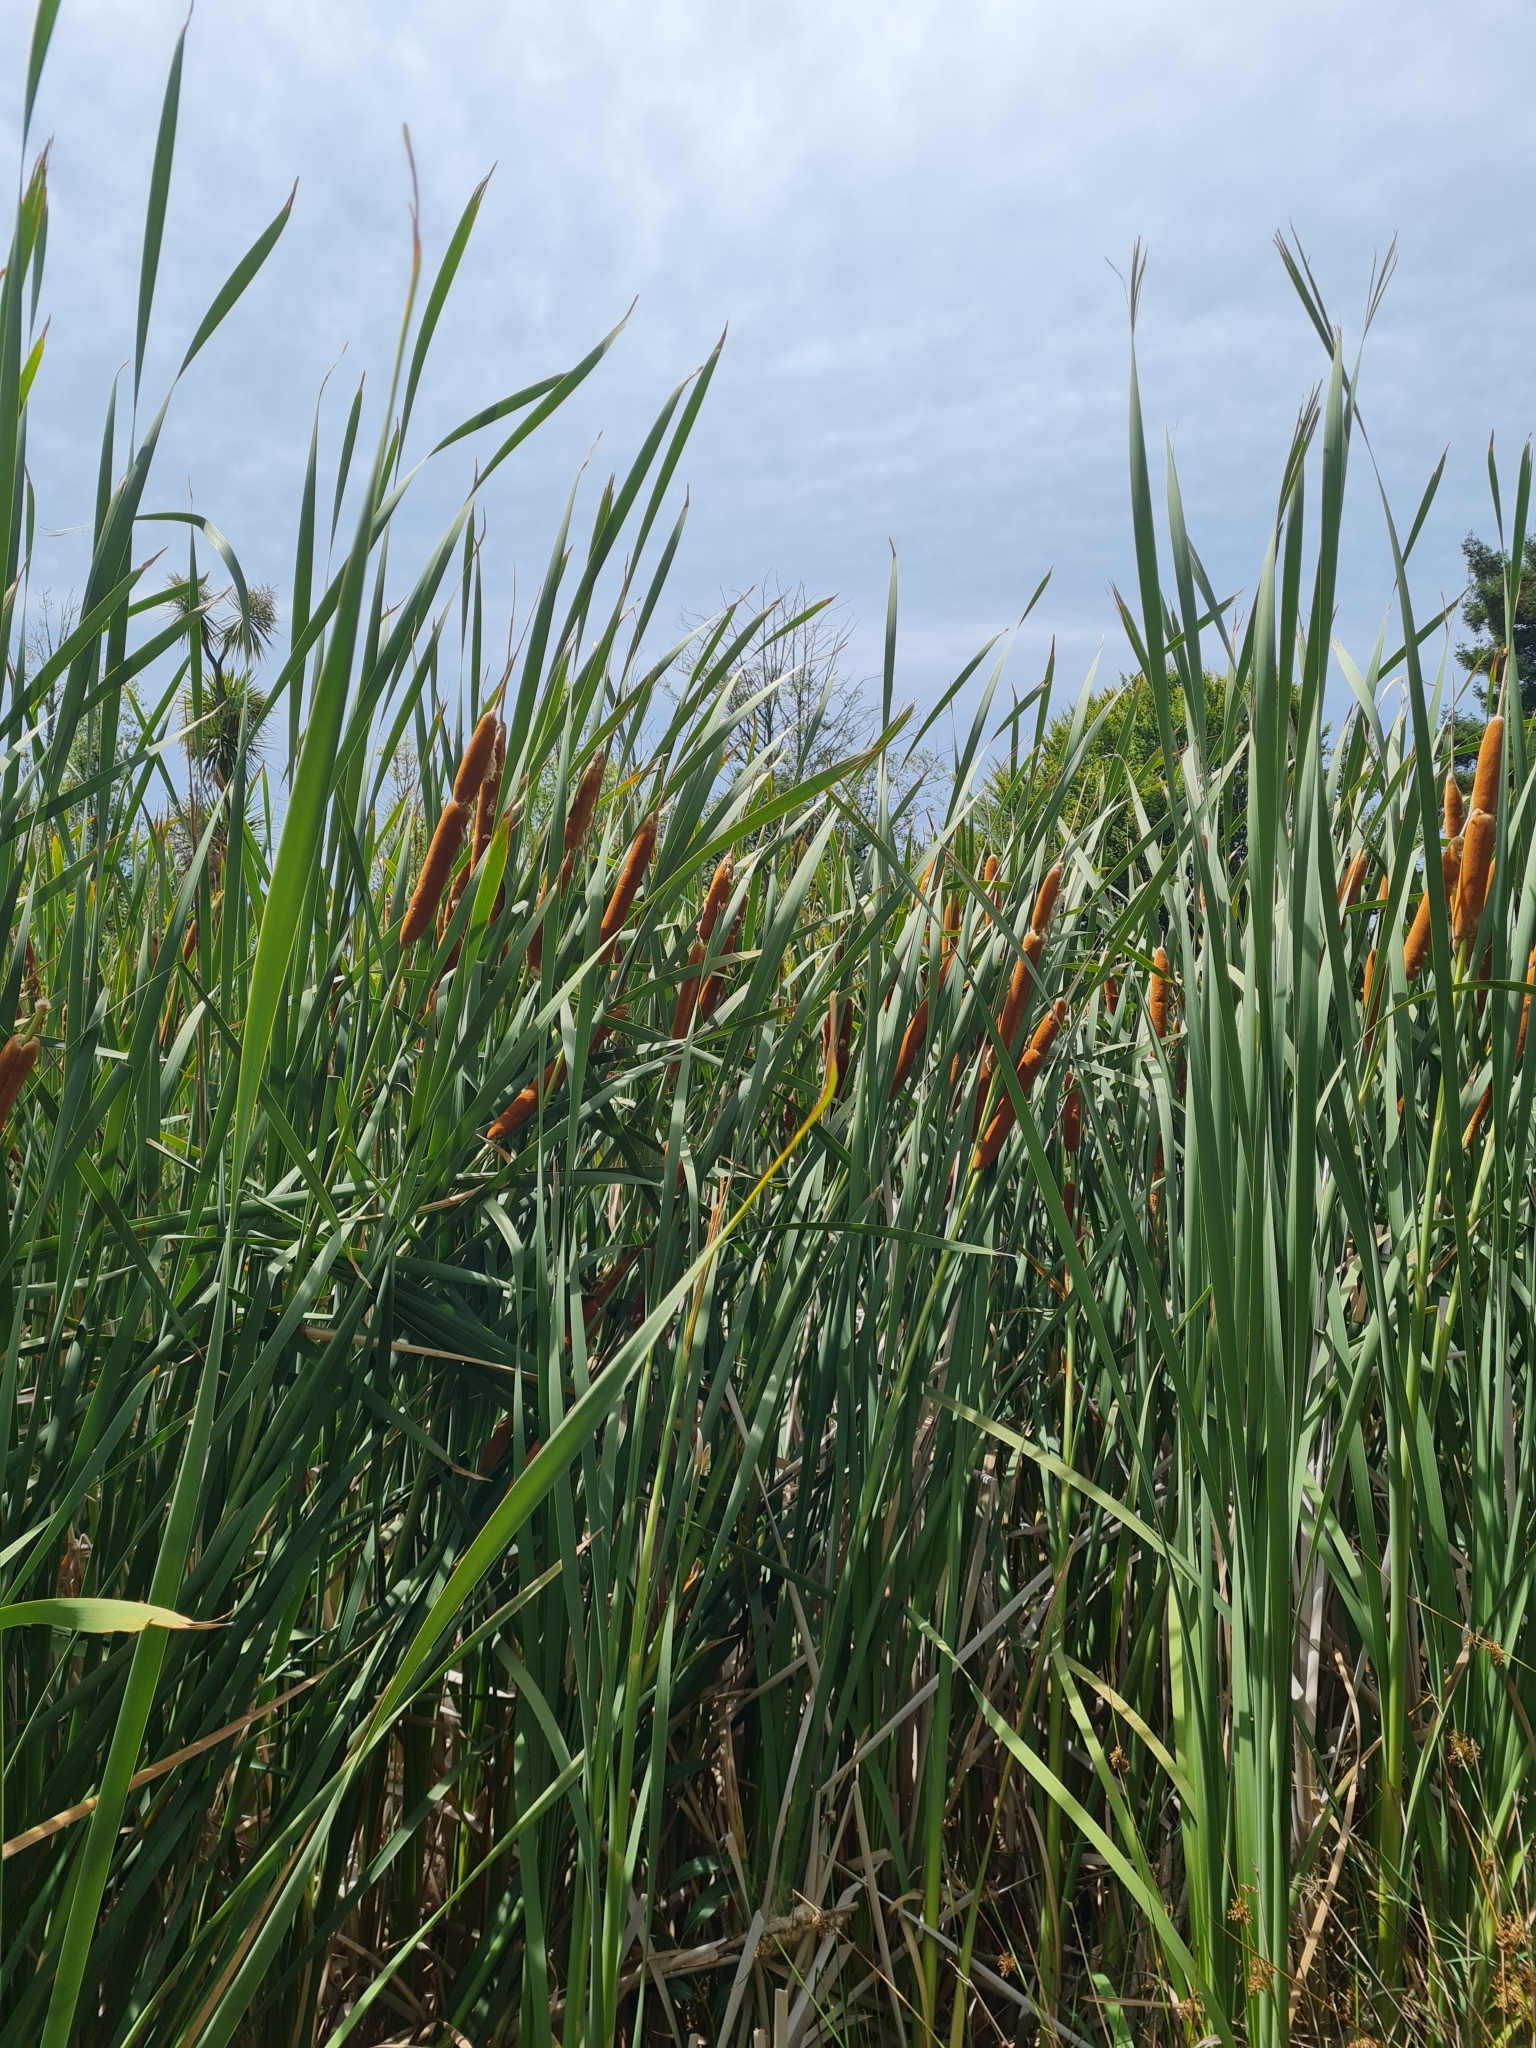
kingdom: Plantae
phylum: Tracheophyta
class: Liliopsida
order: Poales
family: Typhaceae
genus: Typha
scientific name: Typha orientalis
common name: Bullrush
